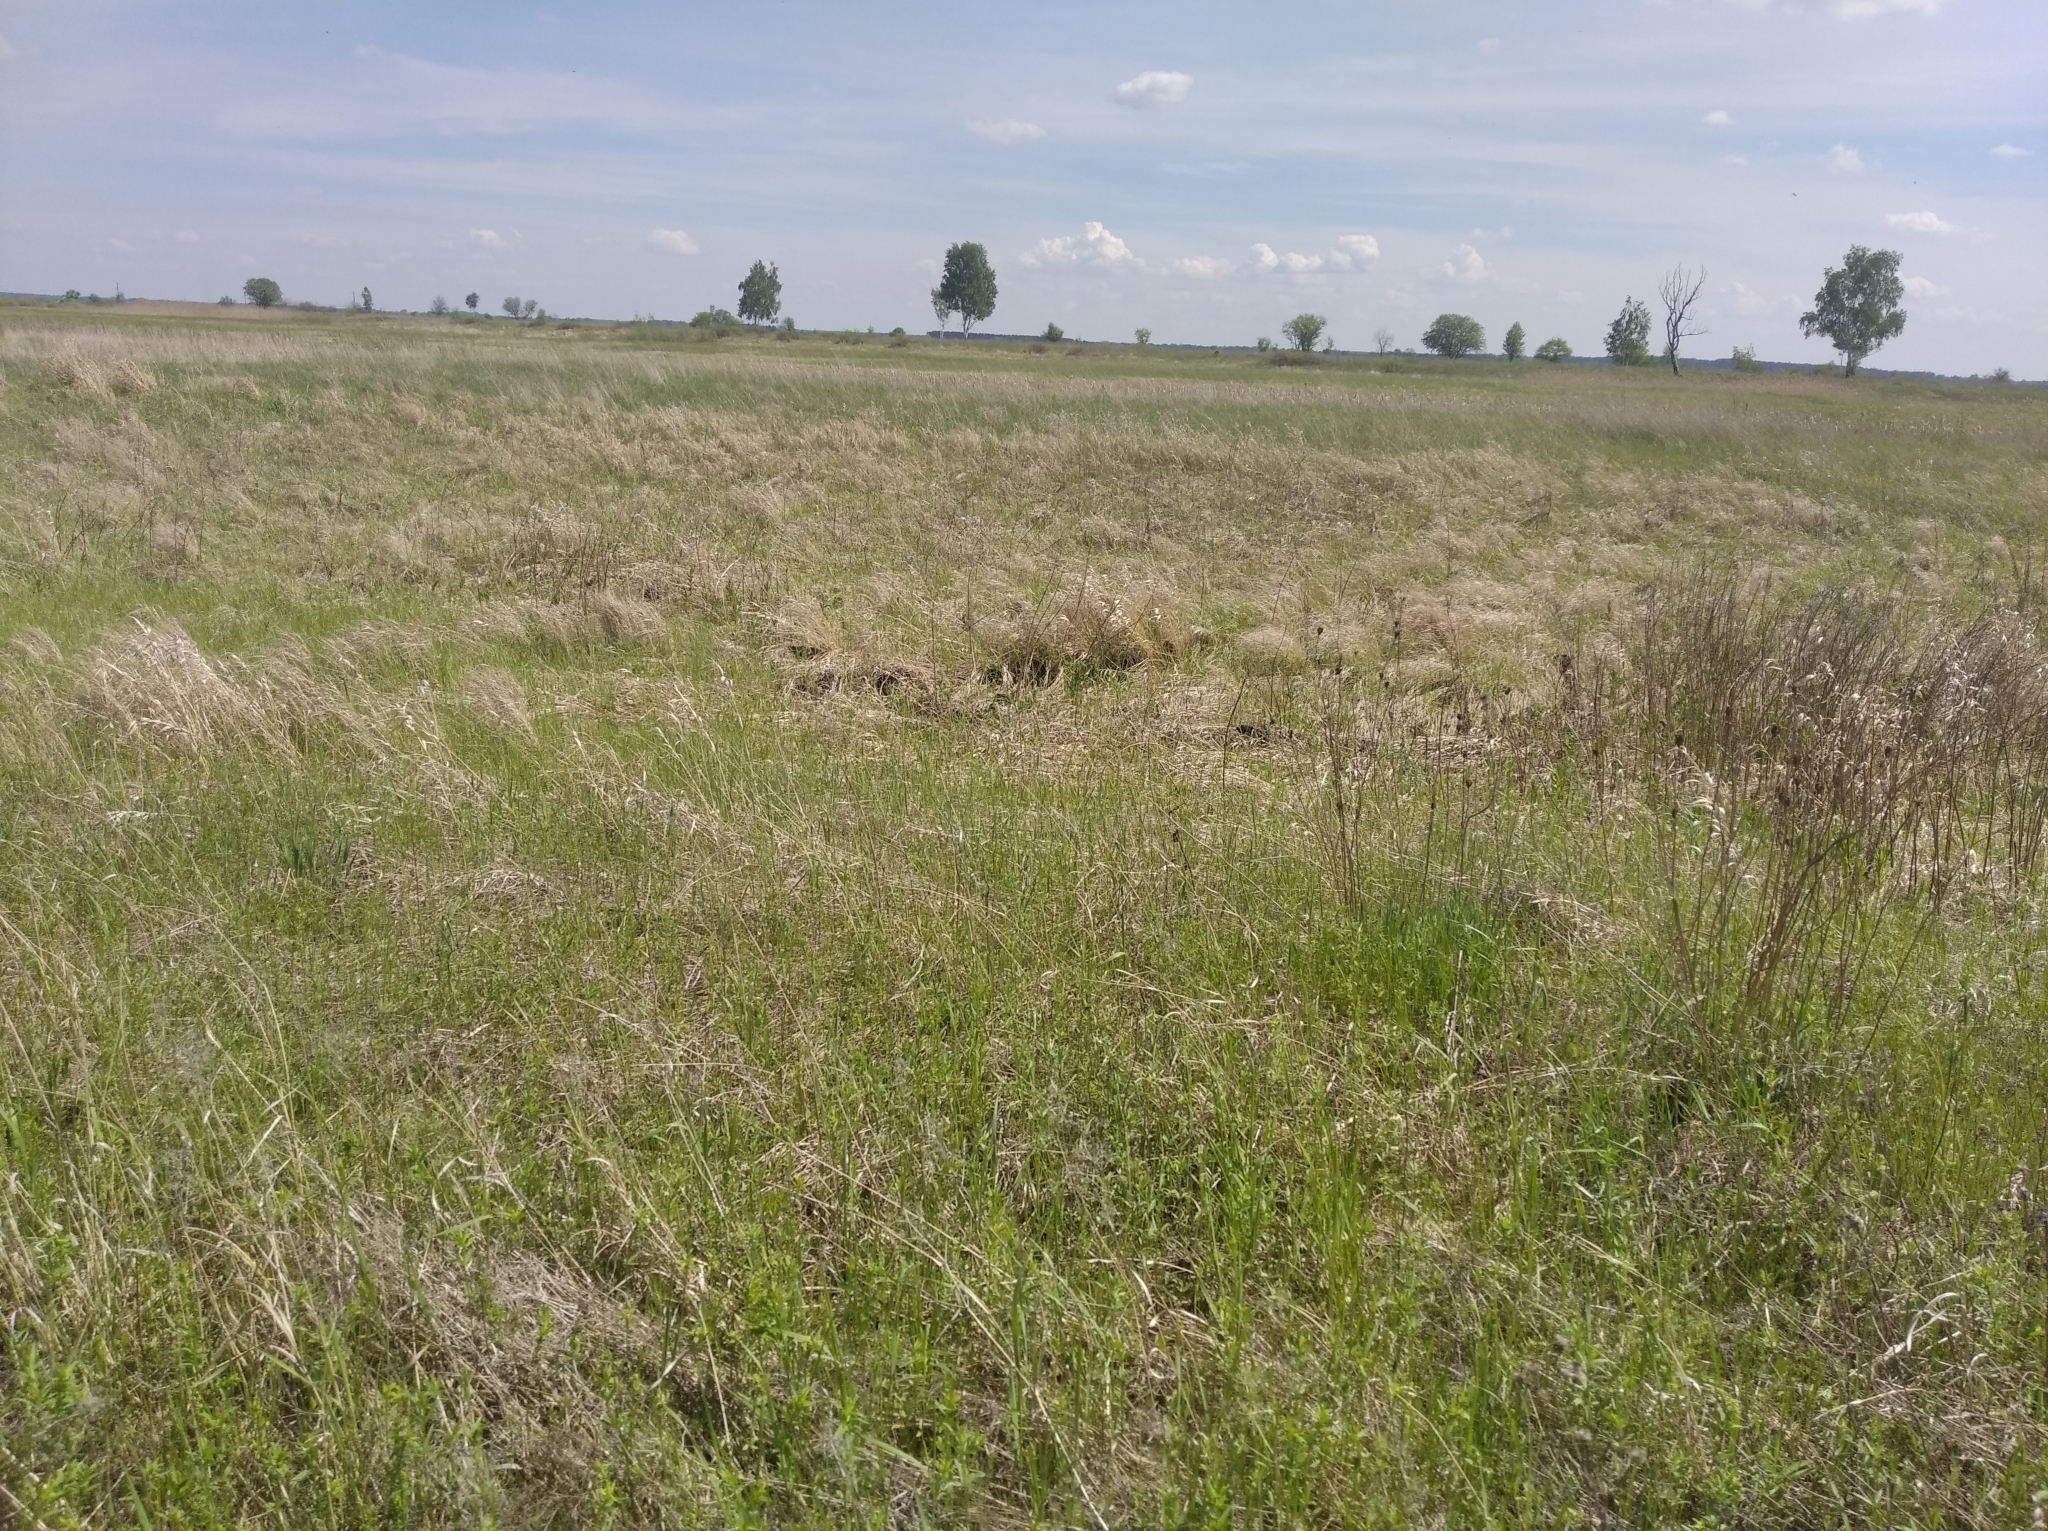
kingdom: Plantae
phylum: Tracheophyta
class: Liliopsida
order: Asparagales
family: Iridaceae
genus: Iris
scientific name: Iris sibirica
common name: Siberian iris
